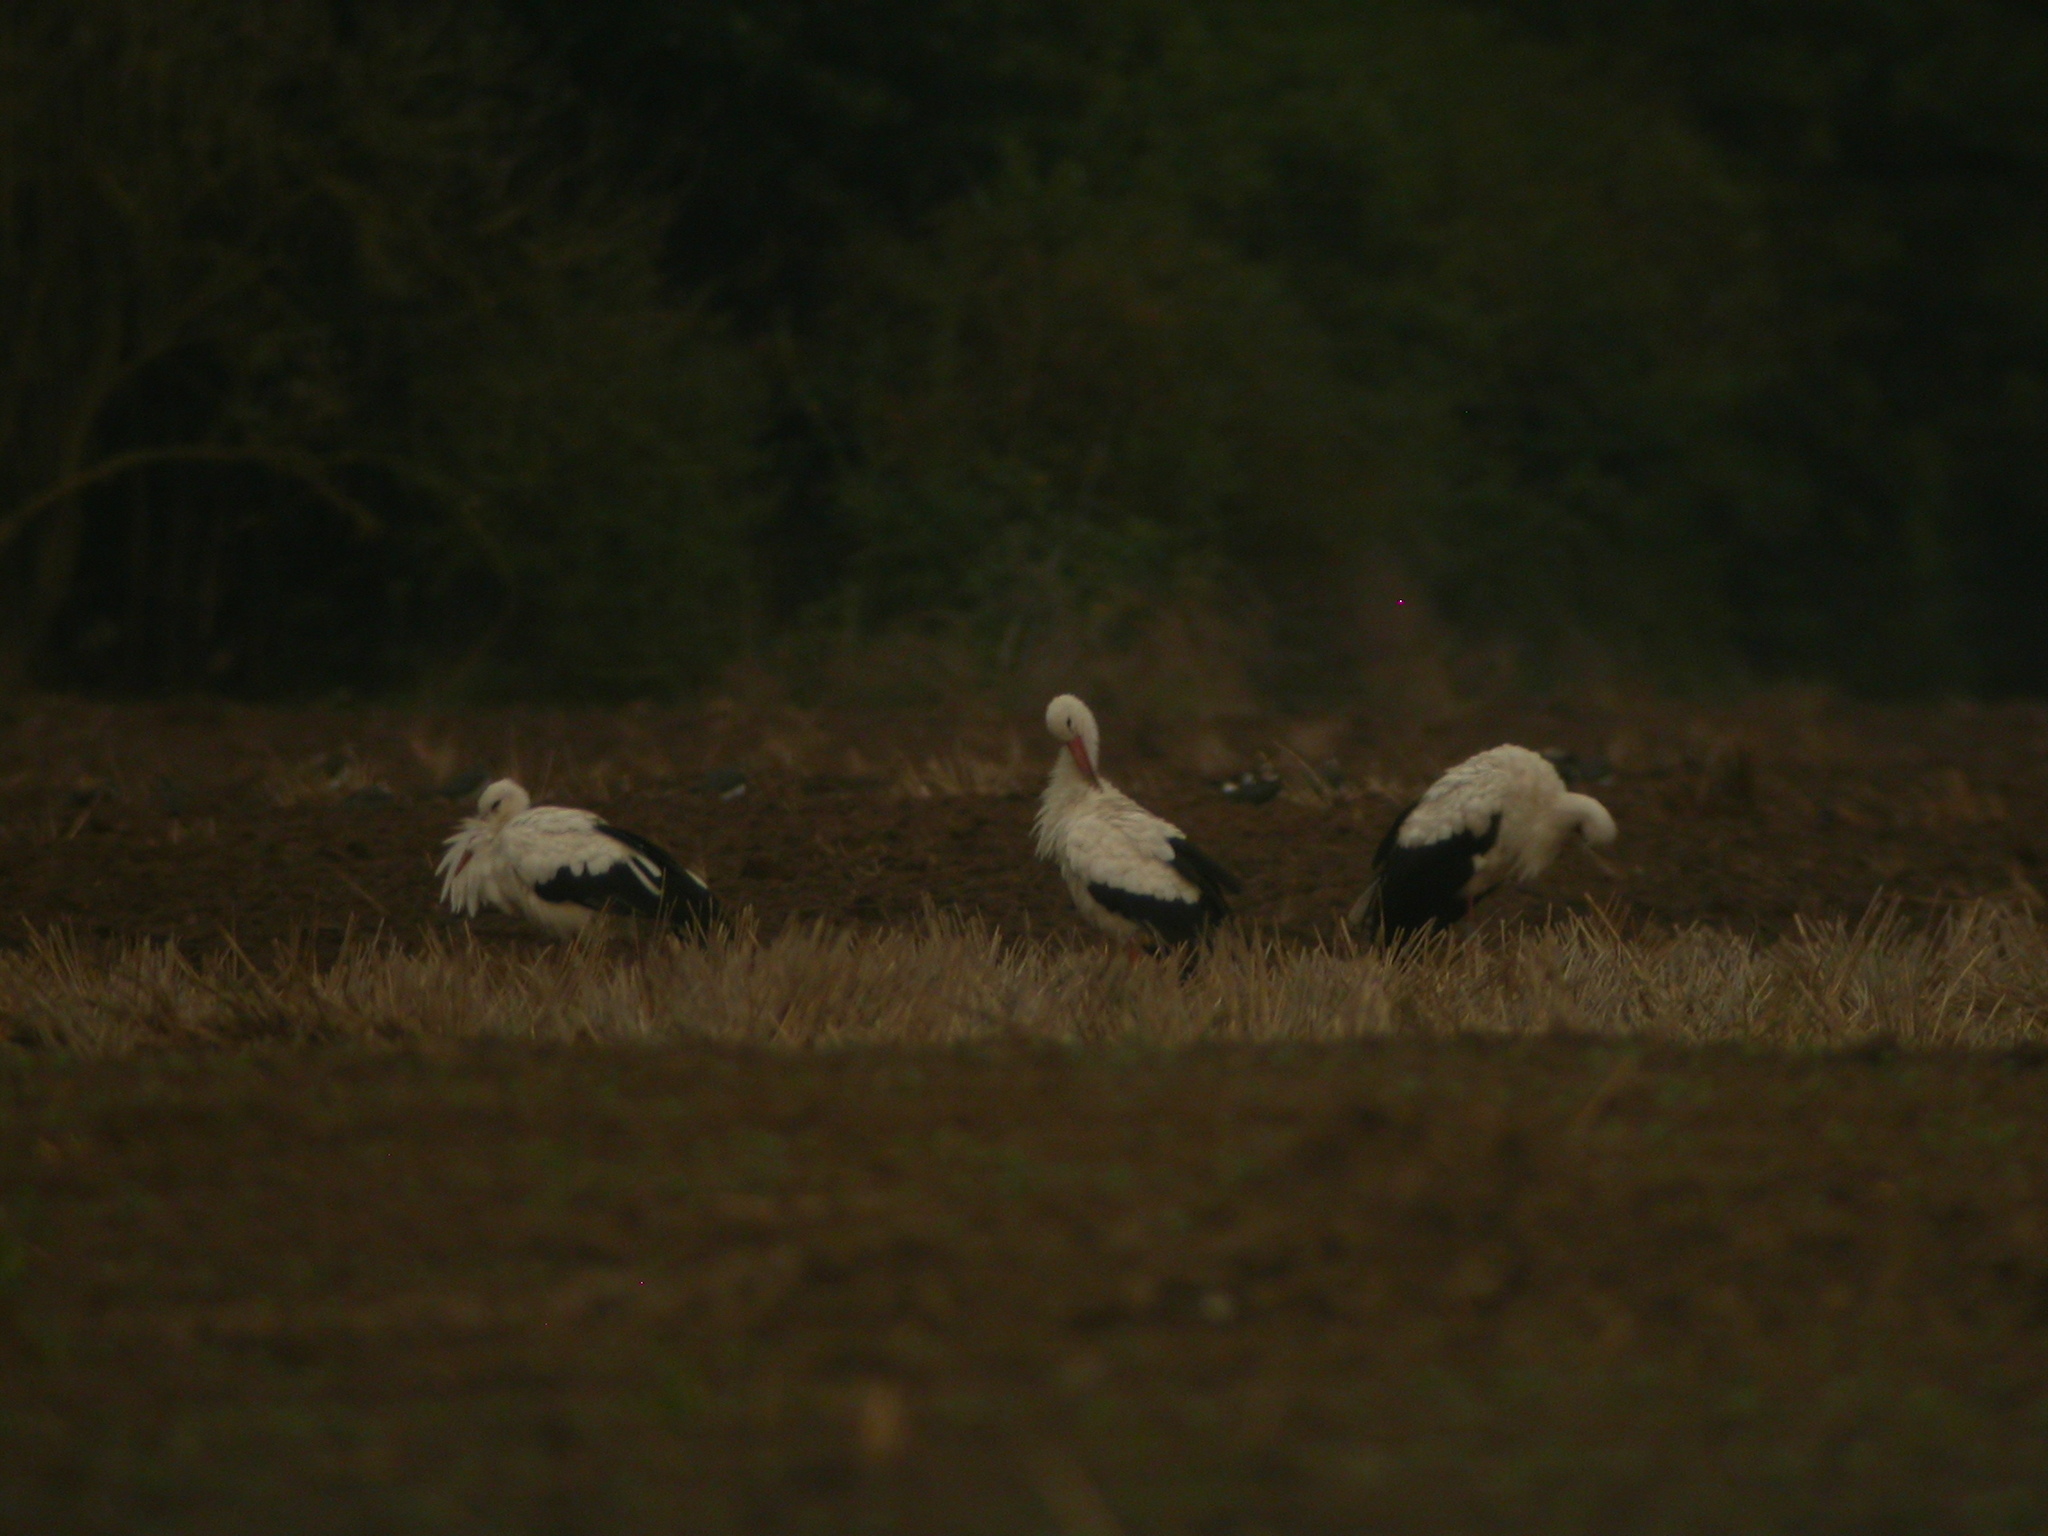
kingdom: Animalia
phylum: Chordata
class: Aves
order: Ciconiiformes
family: Ciconiidae
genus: Ciconia
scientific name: Ciconia ciconia
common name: White stork
